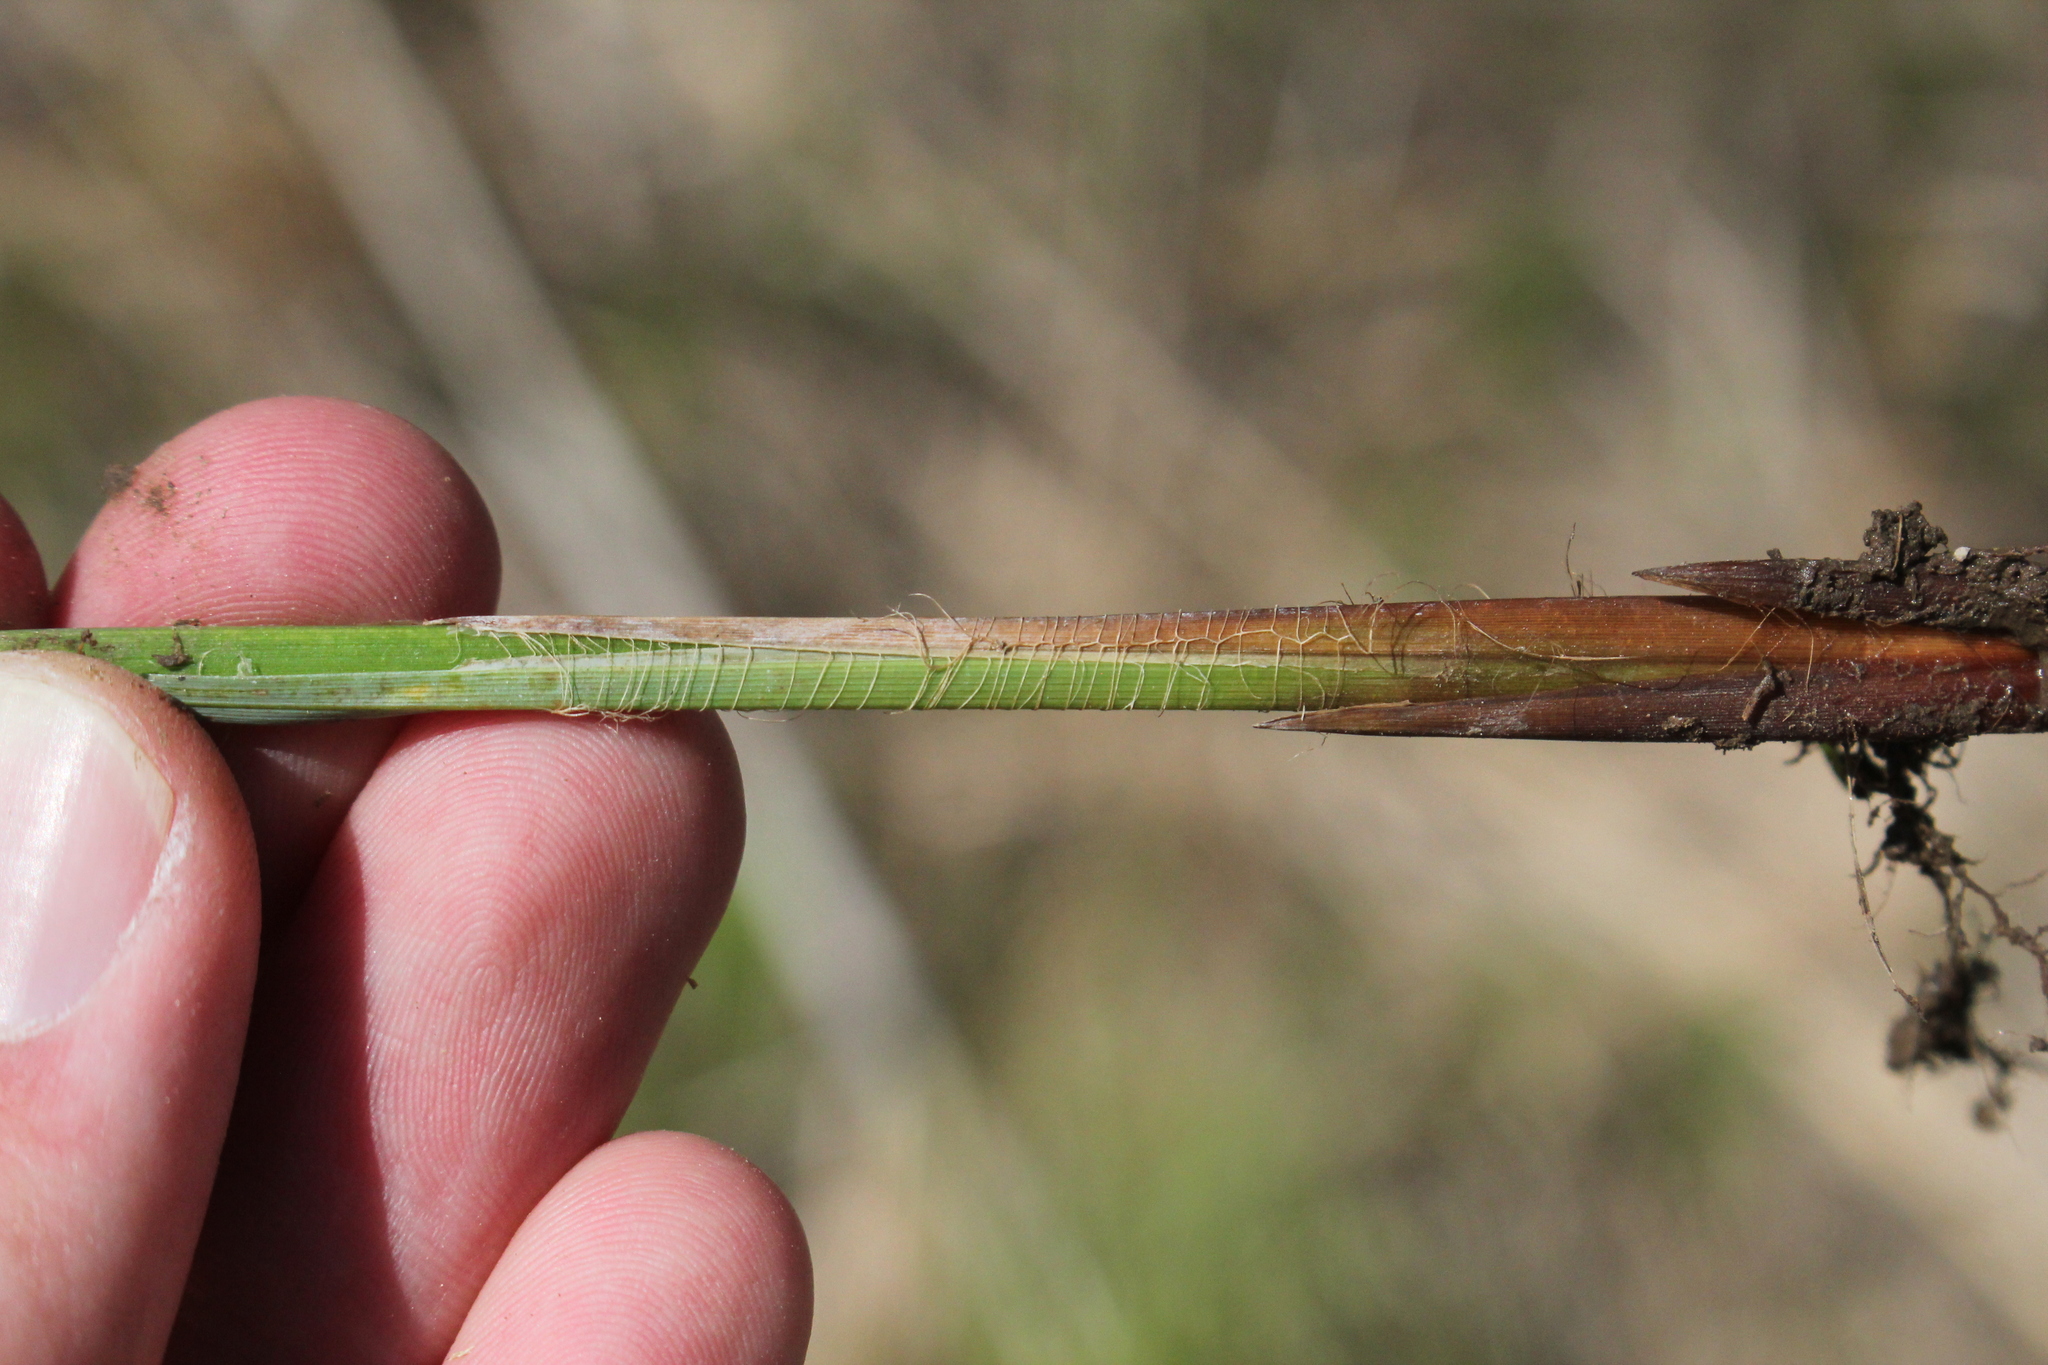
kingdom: Plantae
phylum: Tracheophyta
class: Liliopsida
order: Poales
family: Cyperaceae
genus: Carex
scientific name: Carex stricta
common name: Hummock sedge
